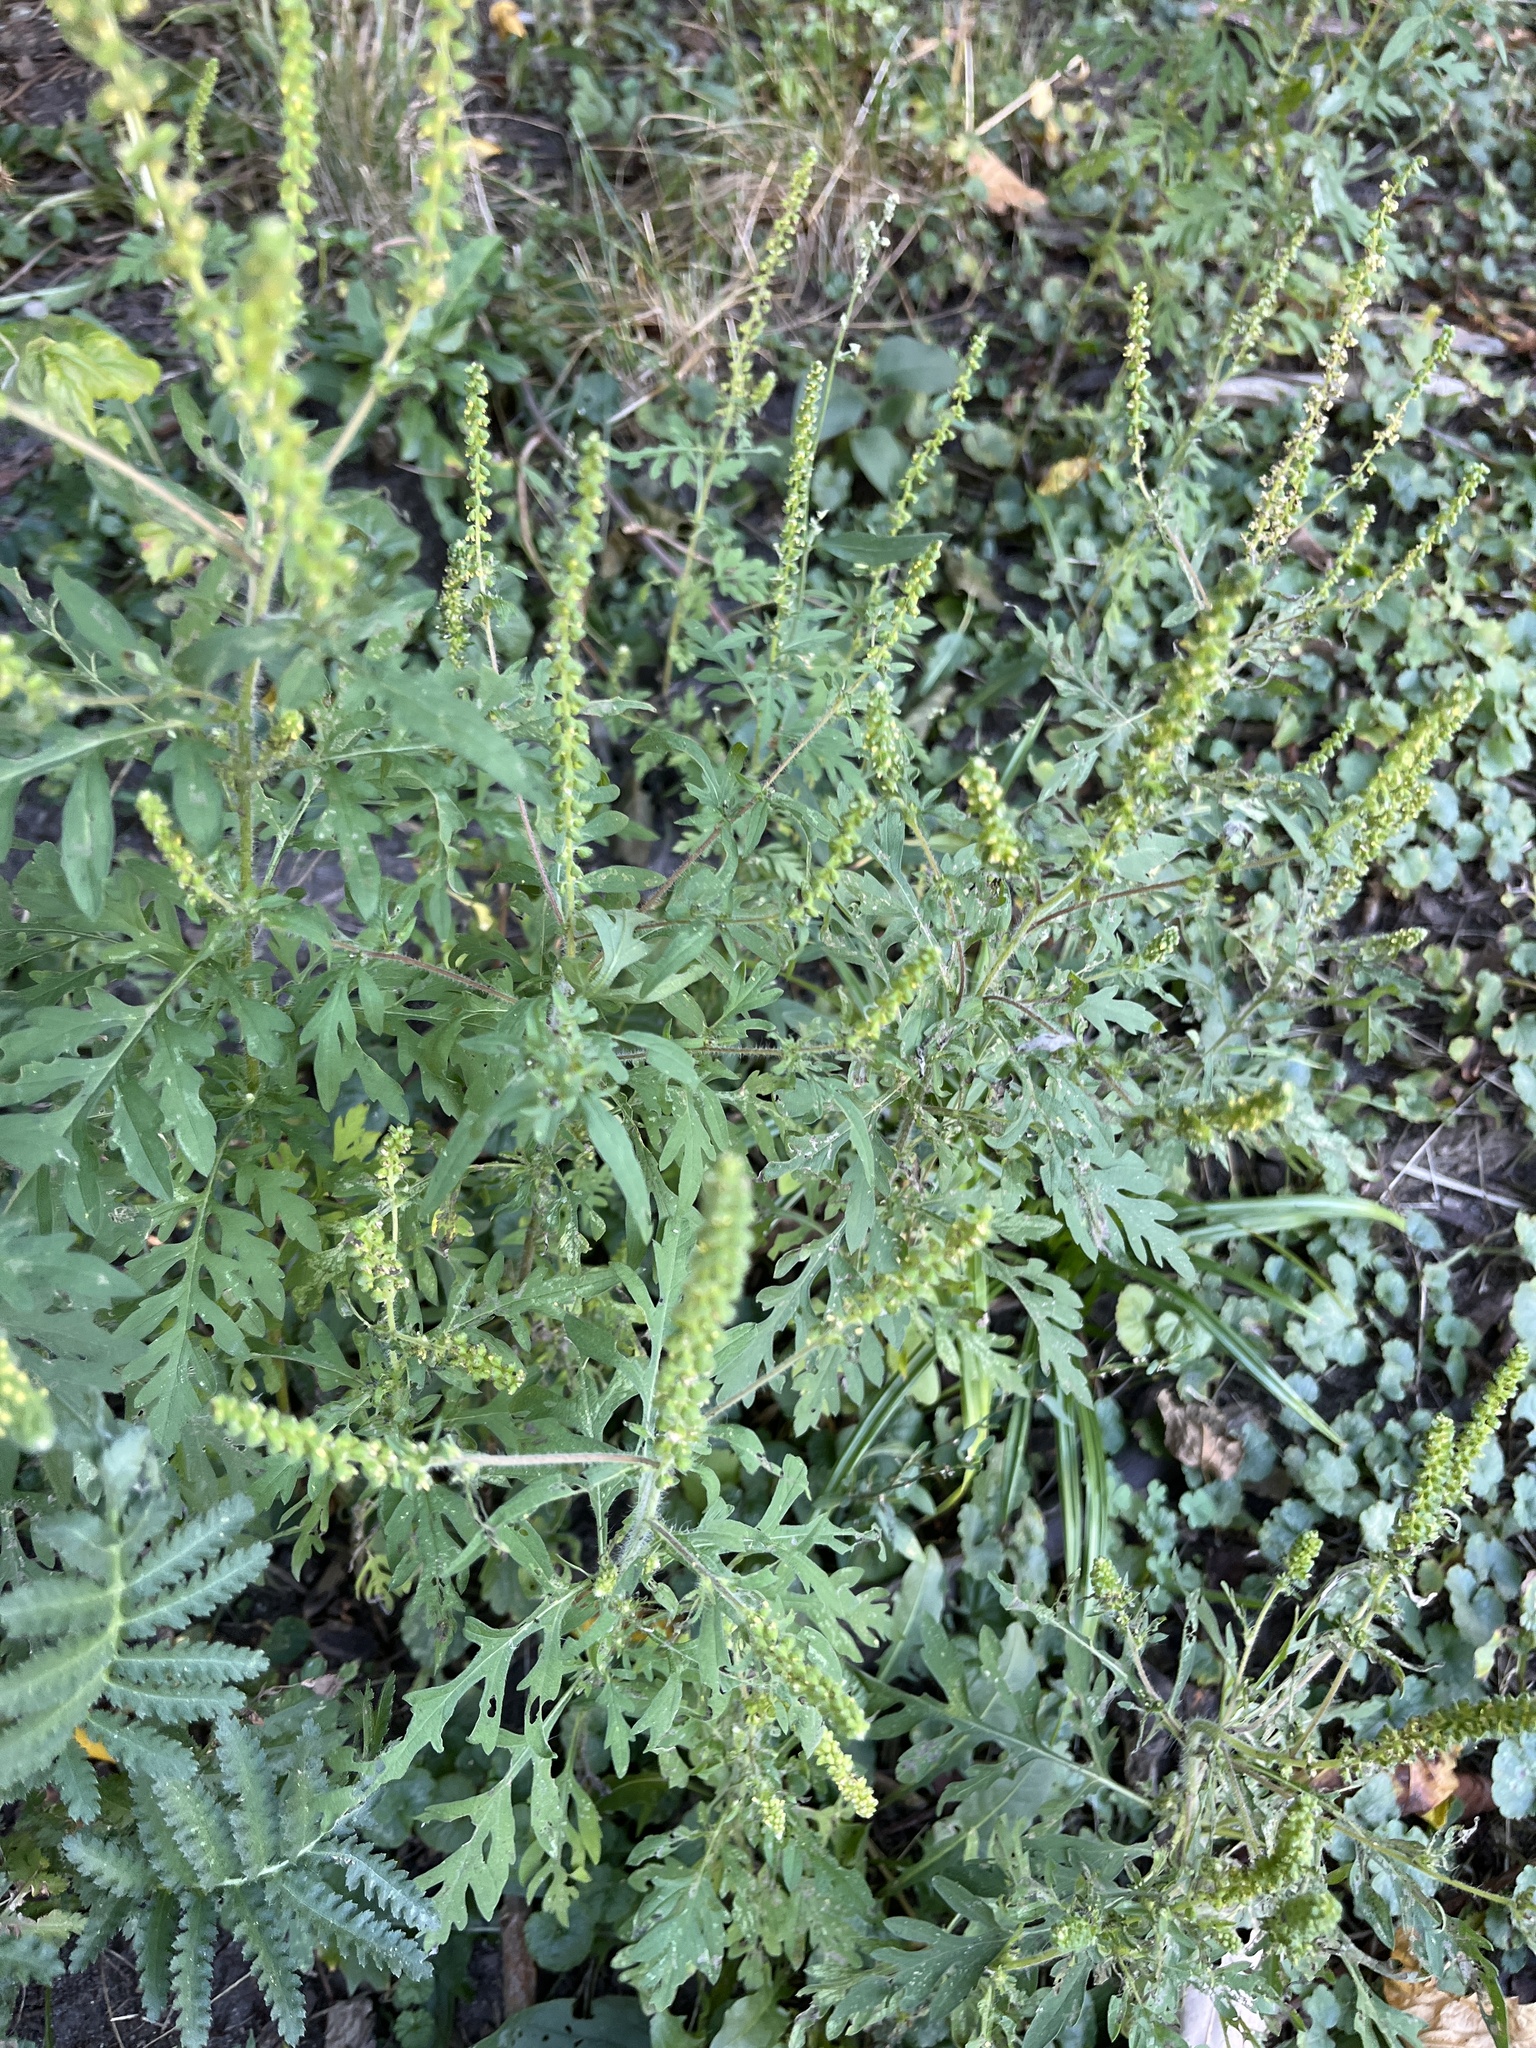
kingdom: Plantae
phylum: Tracheophyta
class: Magnoliopsida
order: Asterales
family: Asteraceae
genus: Ambrosia
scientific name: Ambrosia artemisiifolia
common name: Annual ragweed
